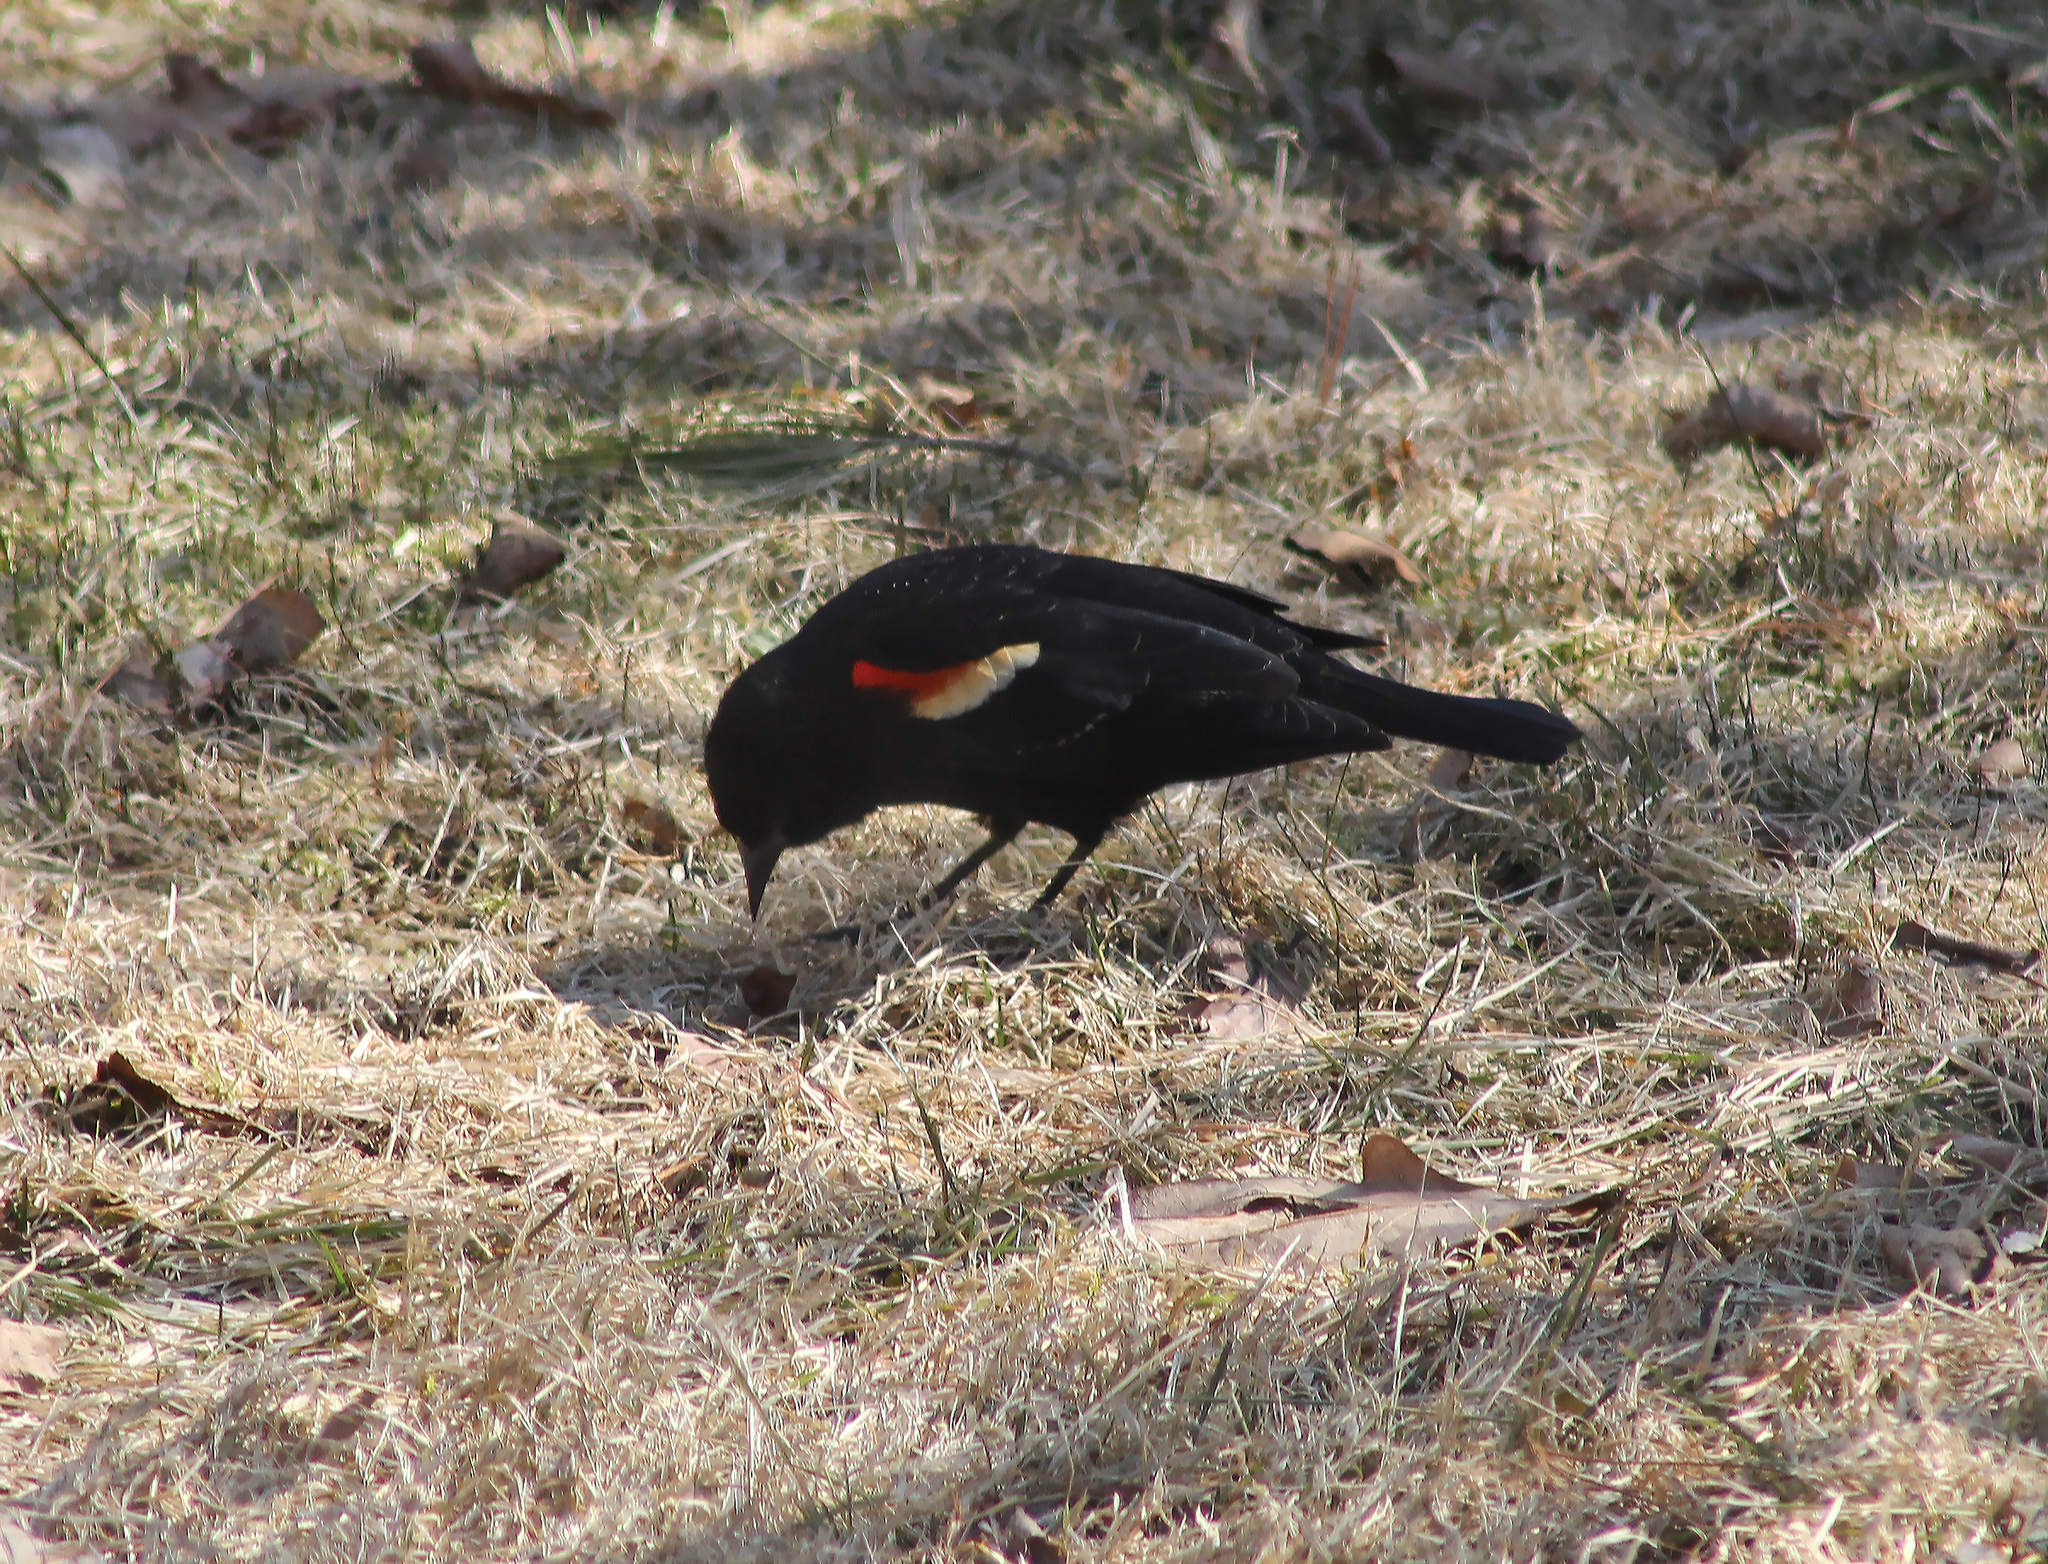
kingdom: Animalia
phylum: Chordata
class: Aves
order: Passeriformes
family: Icteridae
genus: Agelaius
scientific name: Agelaius phoeniceus
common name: Red-winged blackbird
